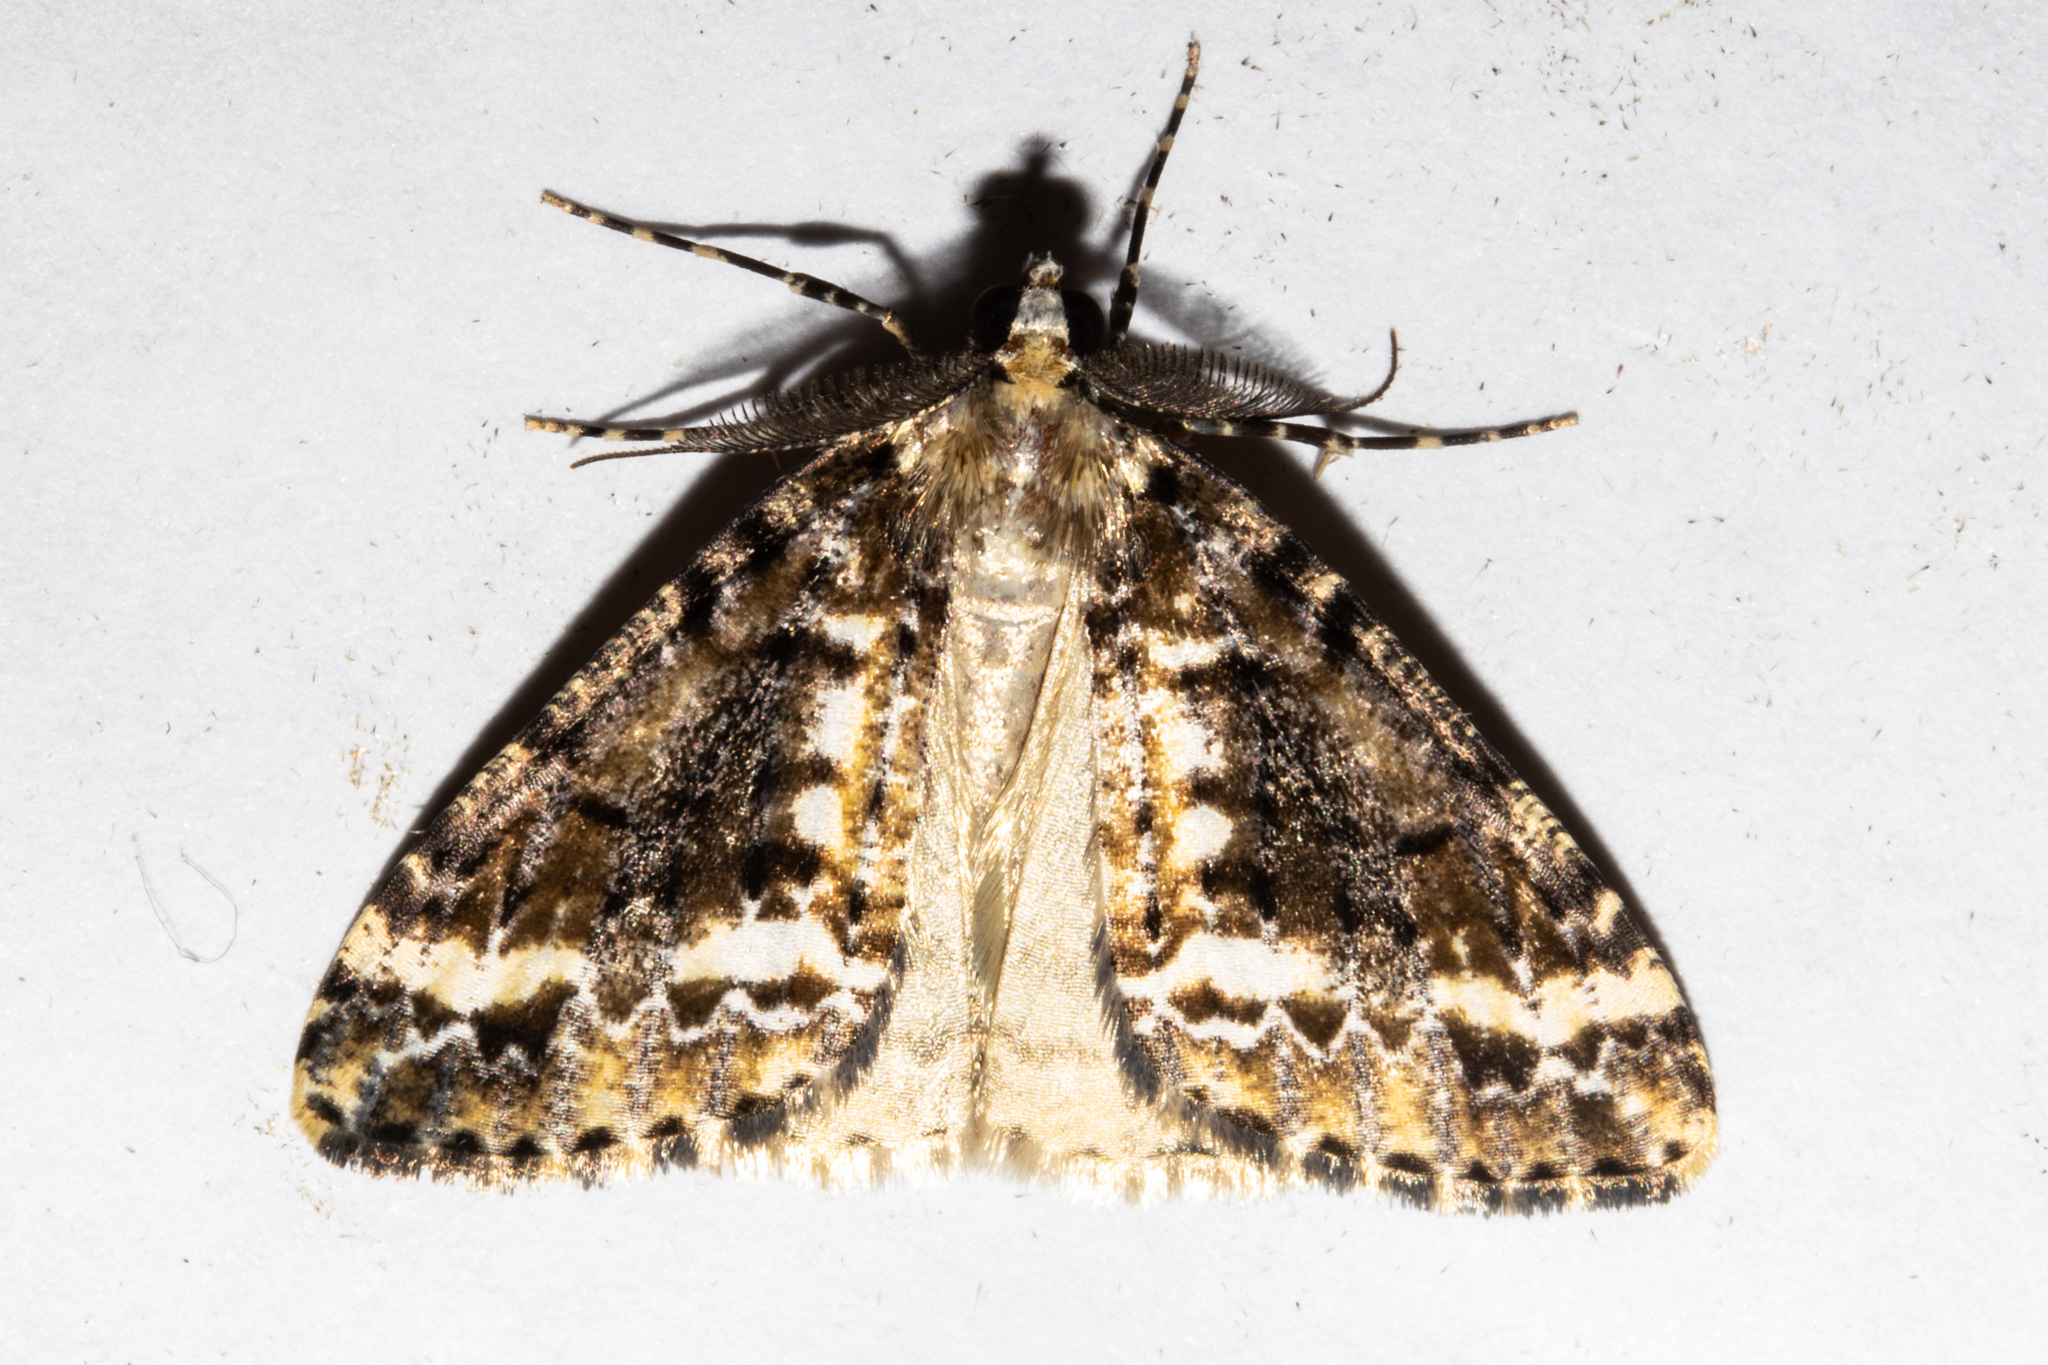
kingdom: Animalia
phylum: Arthropoda
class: Insecta
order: Lepidoptera
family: Geometridae
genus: Pseudocoremia
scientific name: Pseudocoremia leucelaea
